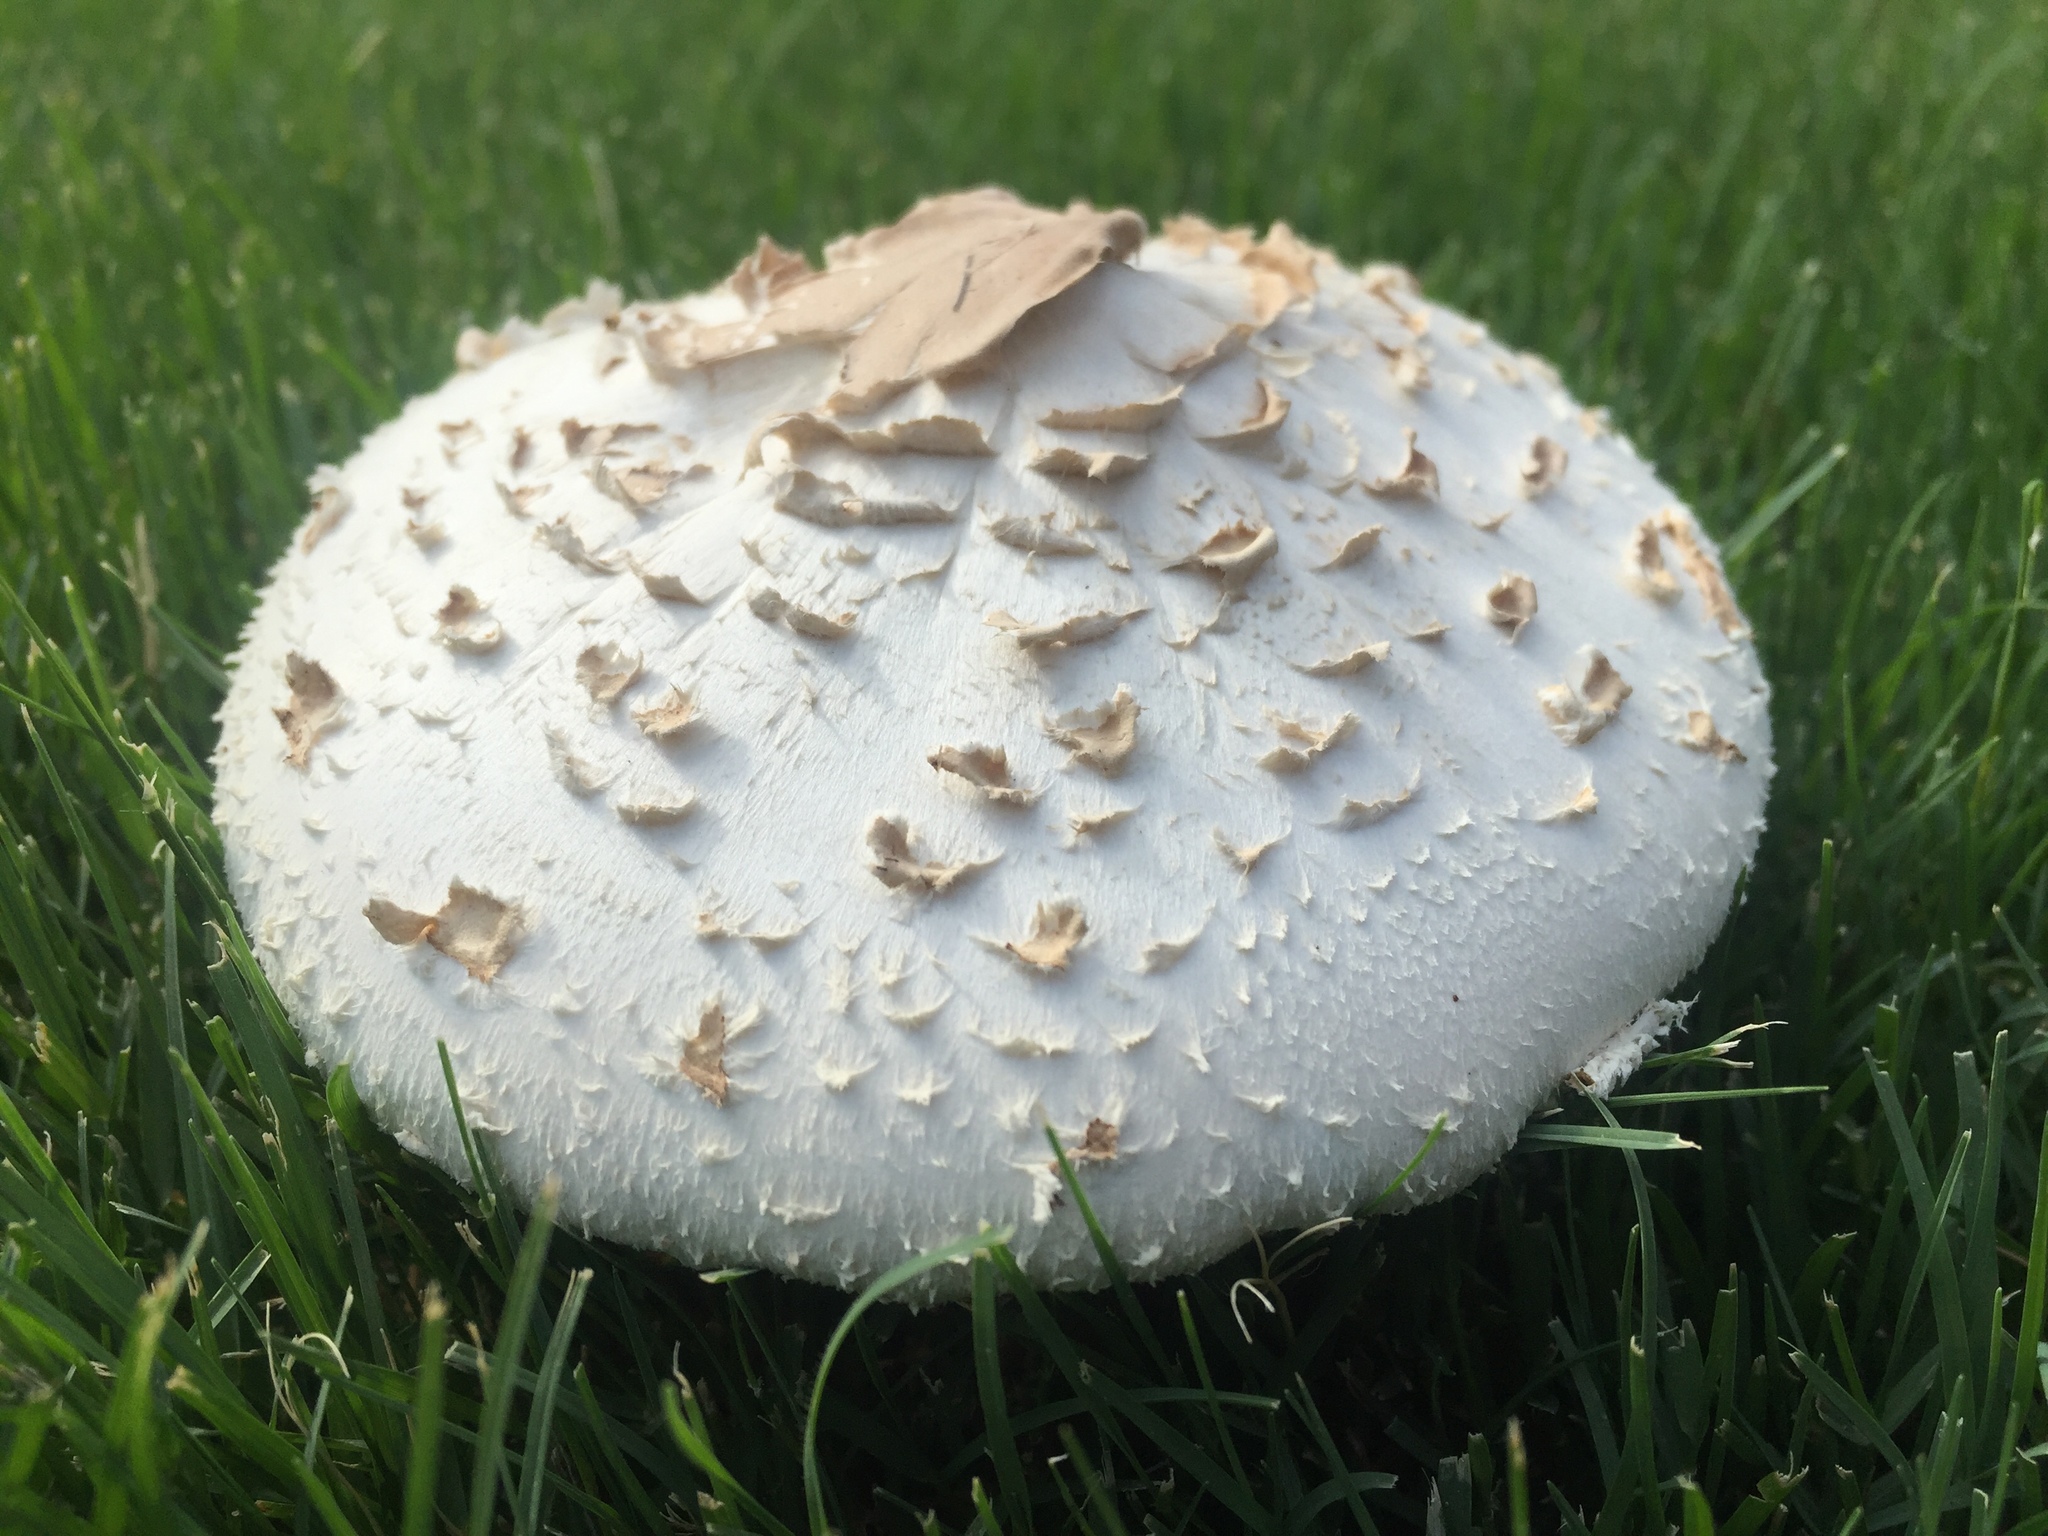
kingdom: Fungi
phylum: Basidiomycota
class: Agaricomycetes
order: Agaricales
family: Agaricaceae
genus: Chlorophyllum
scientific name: Chlorophyllum molybdites
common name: False parasol
